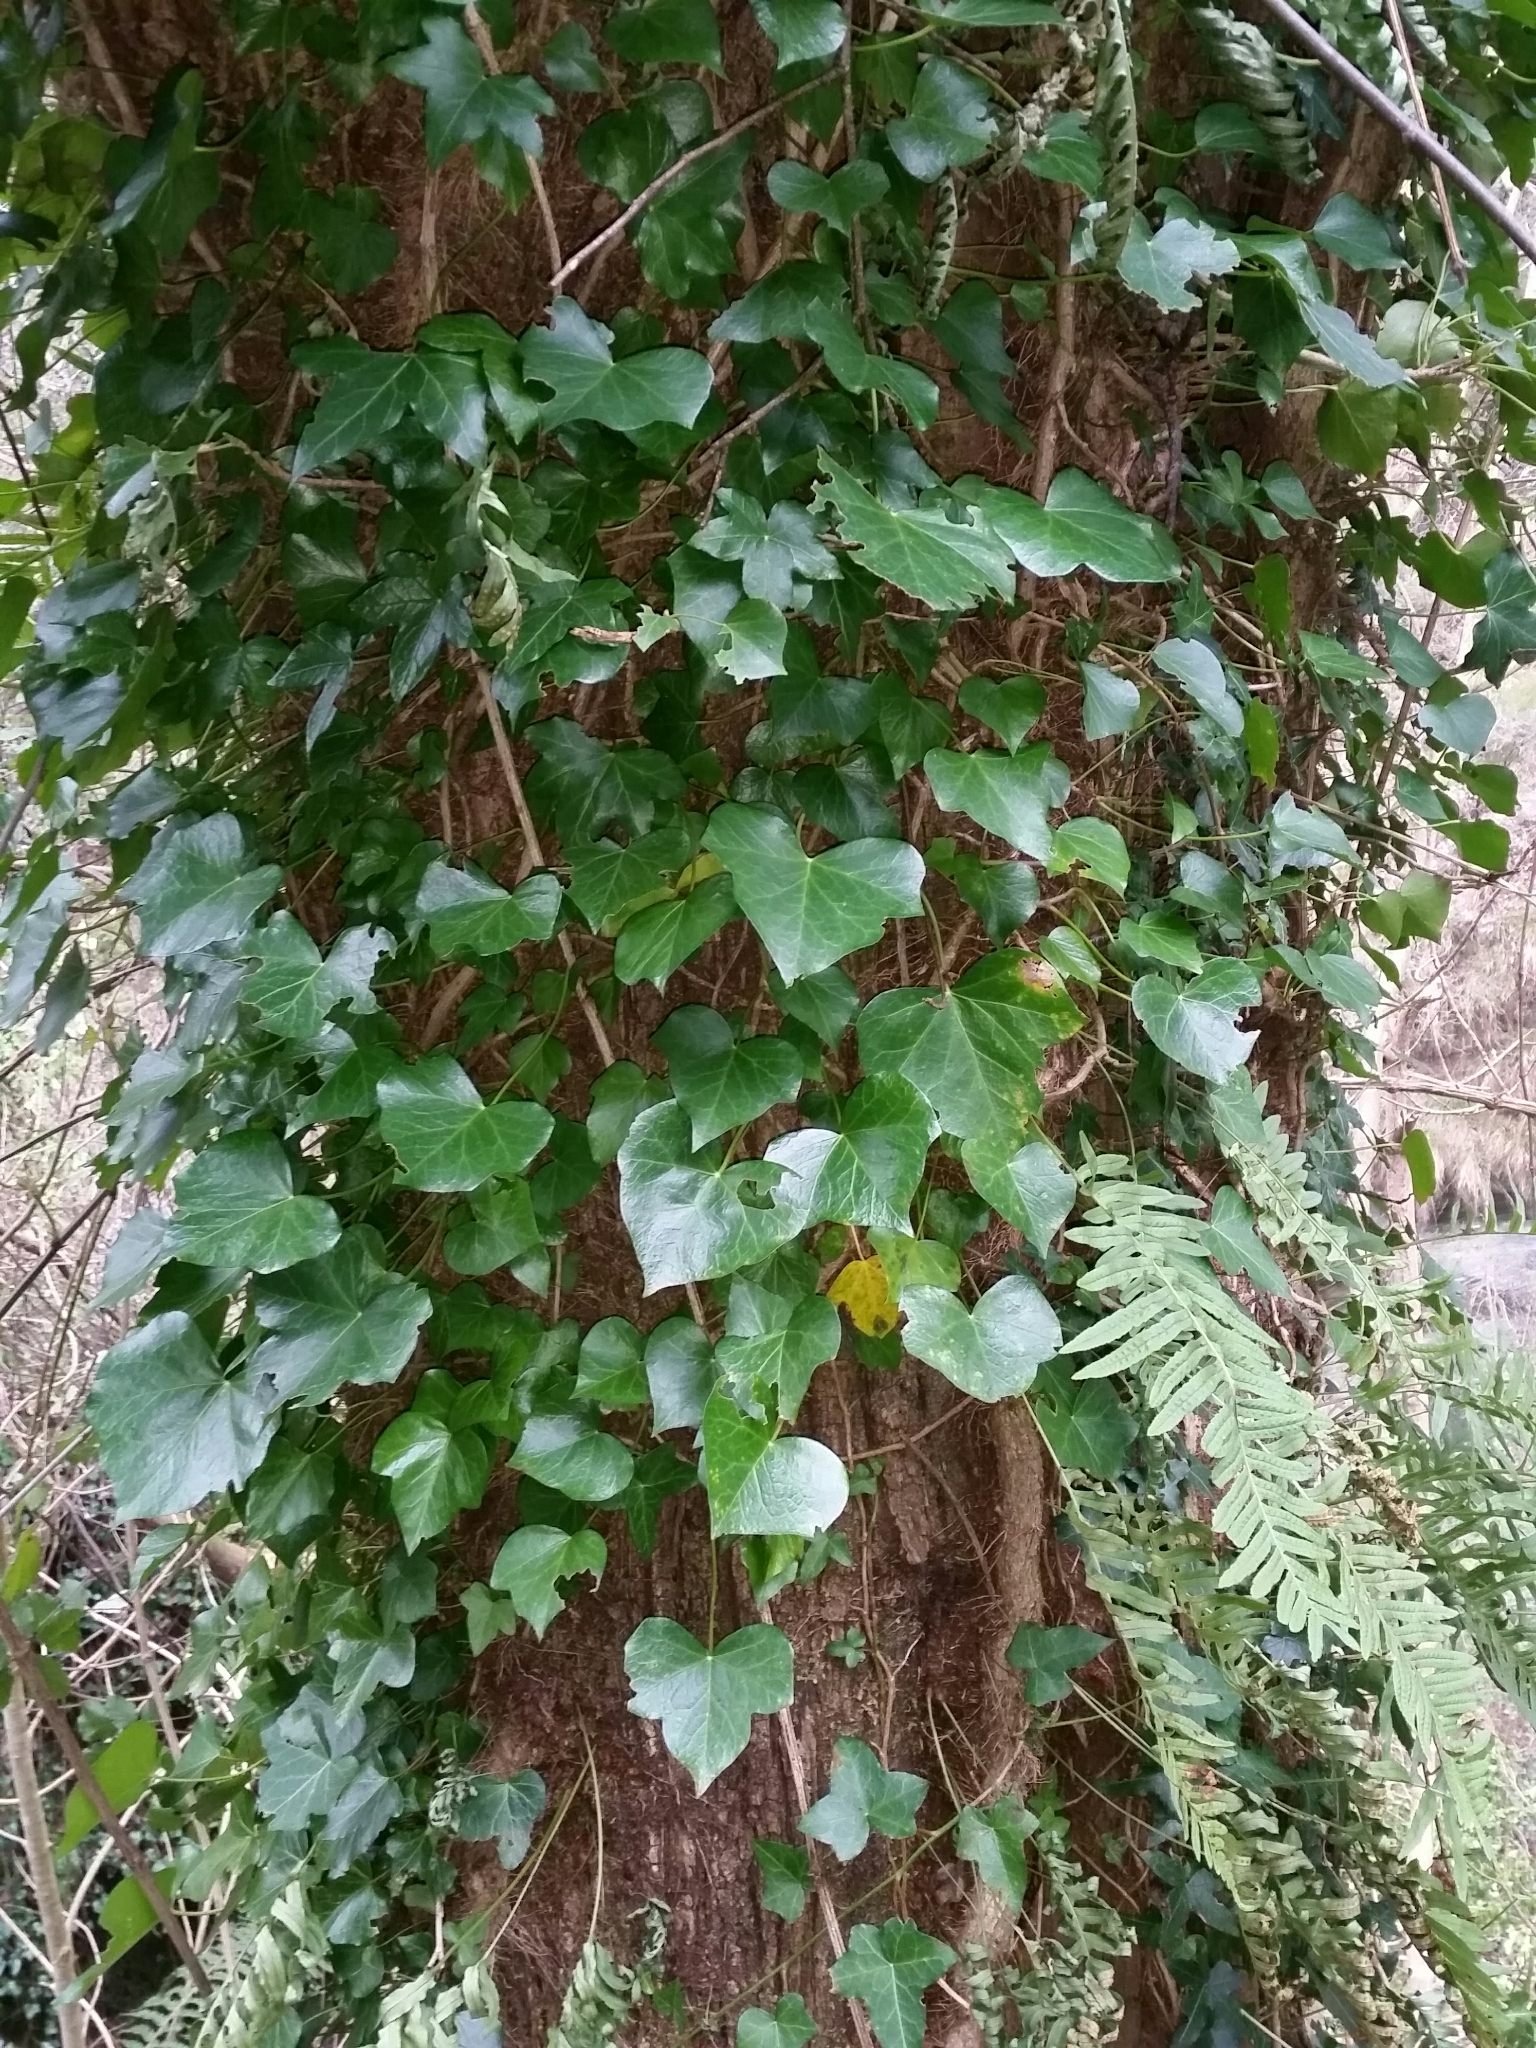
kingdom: Plantae
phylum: Tracheophyta
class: Magnoliopsida
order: Apiales
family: Araliaceae
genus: Hedera
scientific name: Hedera helix
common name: Ivy
